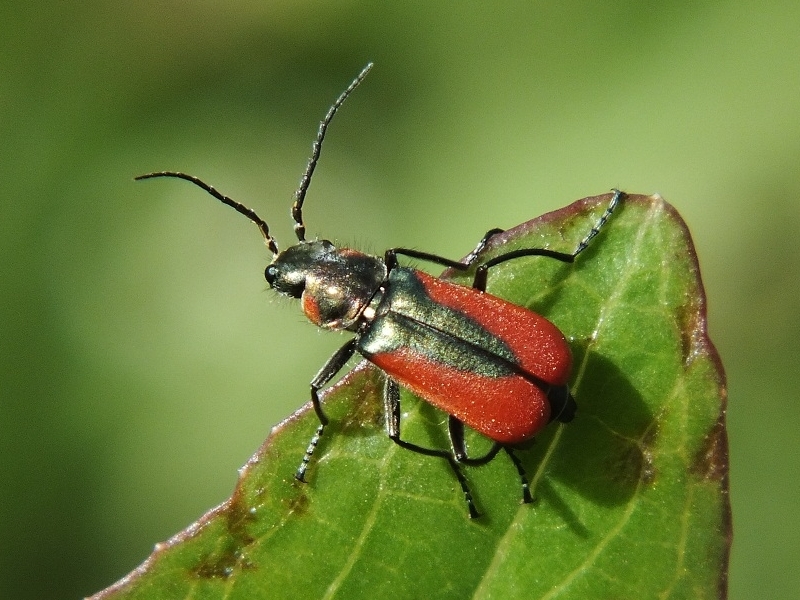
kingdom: Animalia
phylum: Arthropoda
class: Insecta
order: Coleoptera
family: Melyridae
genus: Malachius
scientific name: Malachius aeneus
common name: Scarlet malachite beetle
